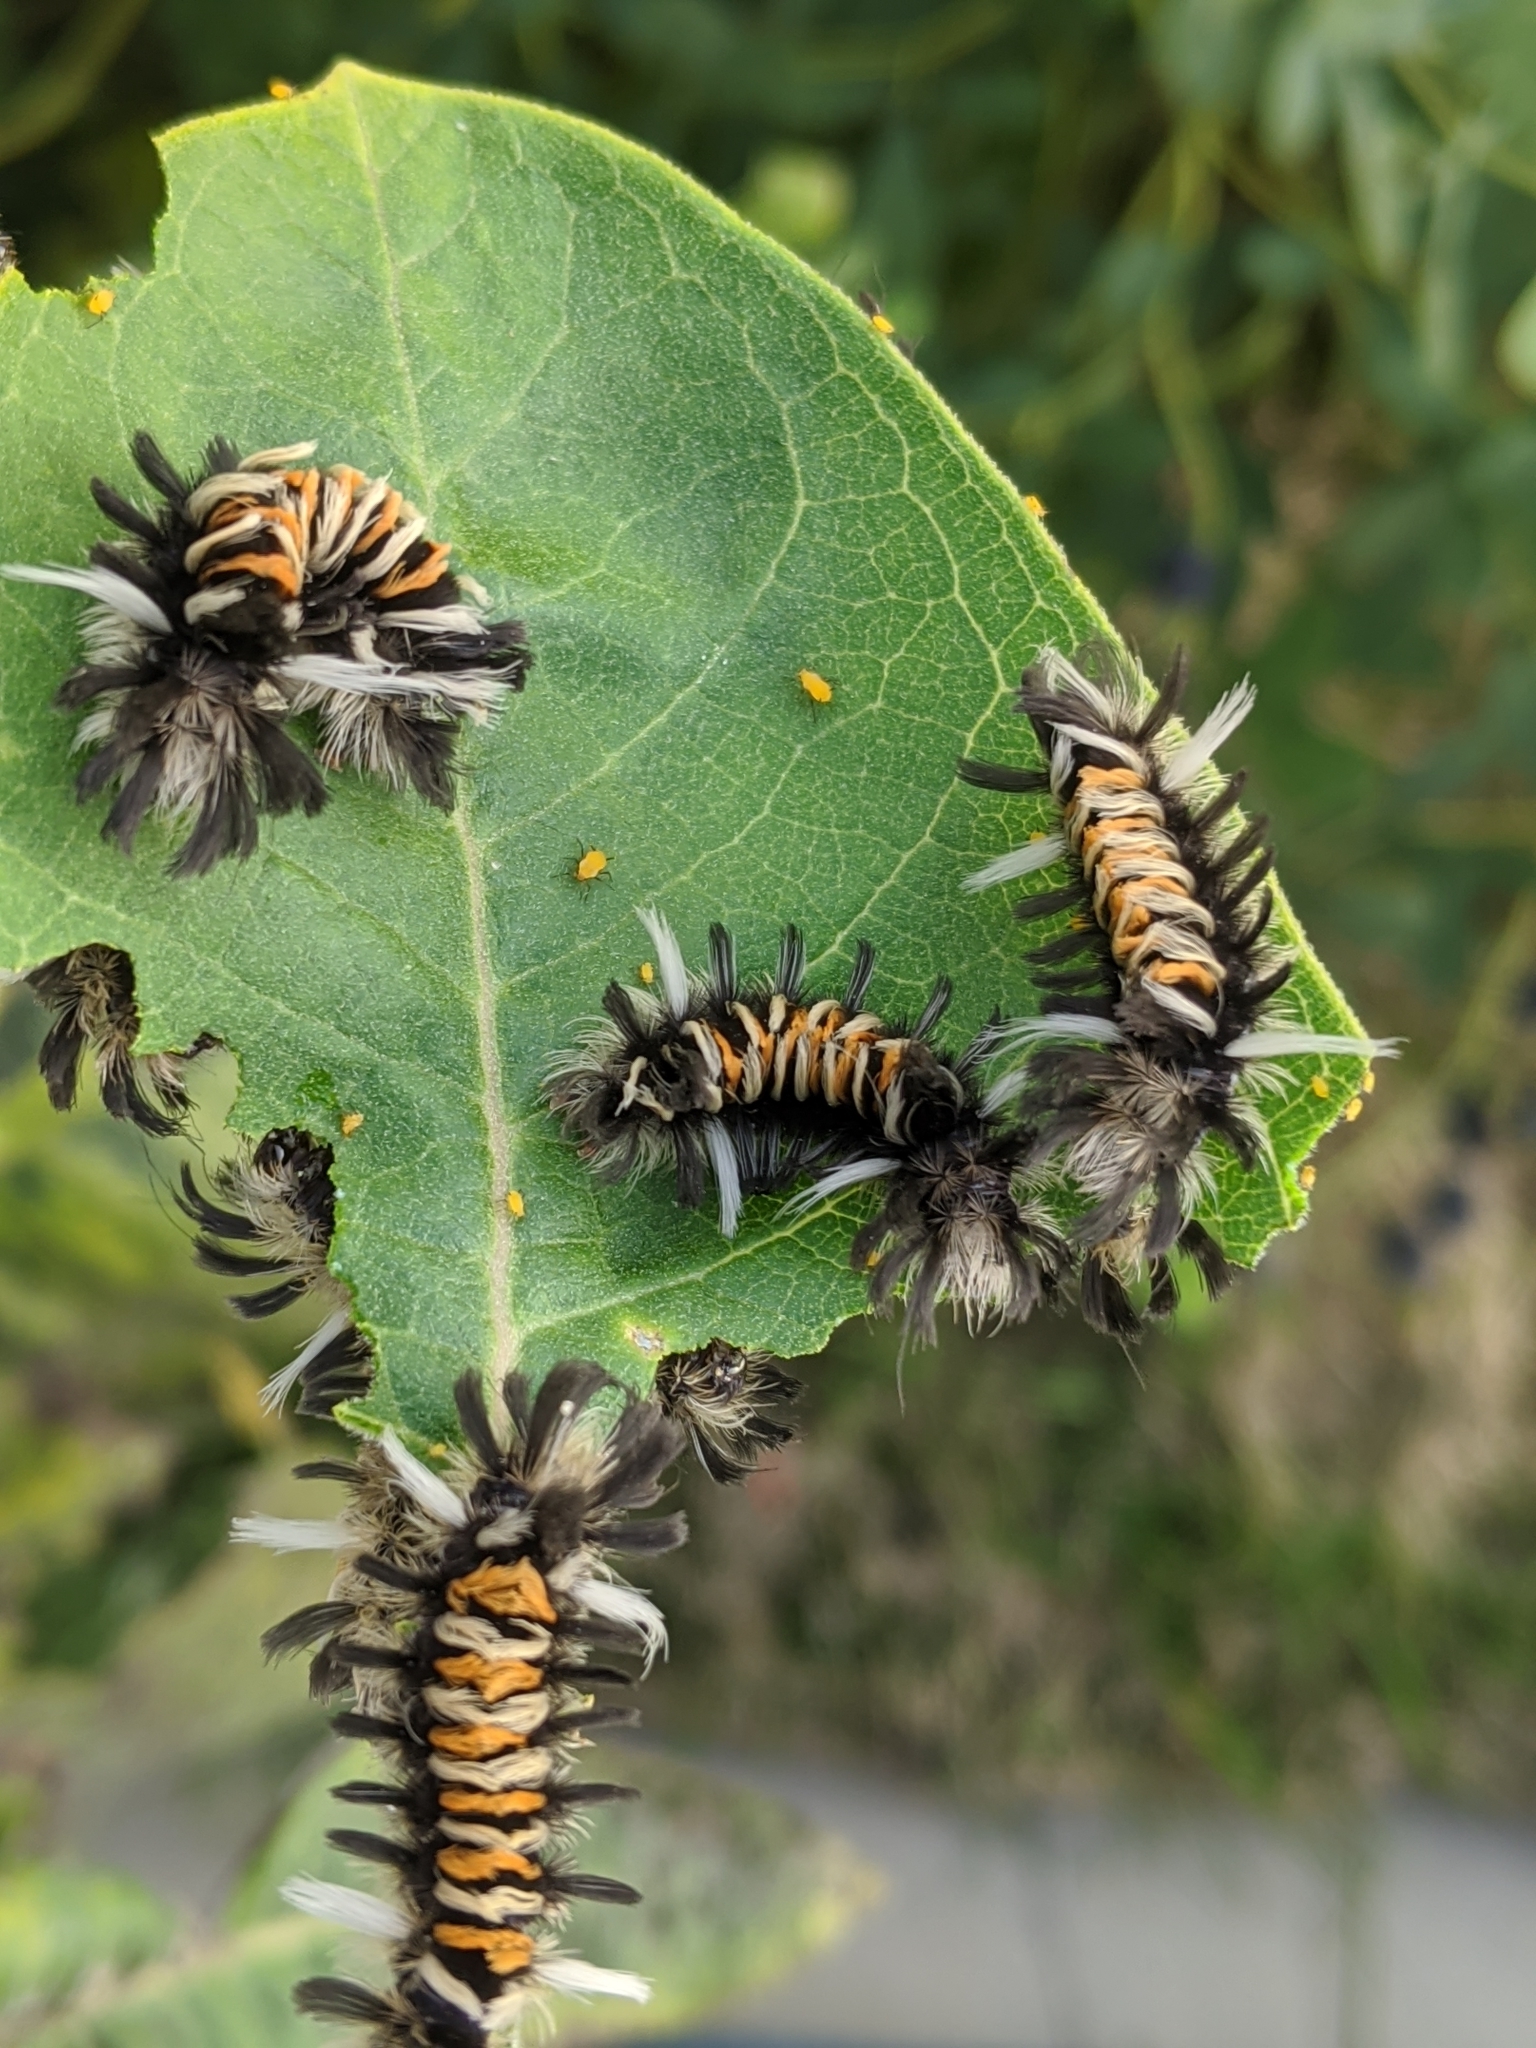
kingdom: Animalia
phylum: Arthropoda
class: Insecta
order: Lepidoptera
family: Erebidae
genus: Euchaetes
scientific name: Euchaetes egle
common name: Milkweed tussock moth
